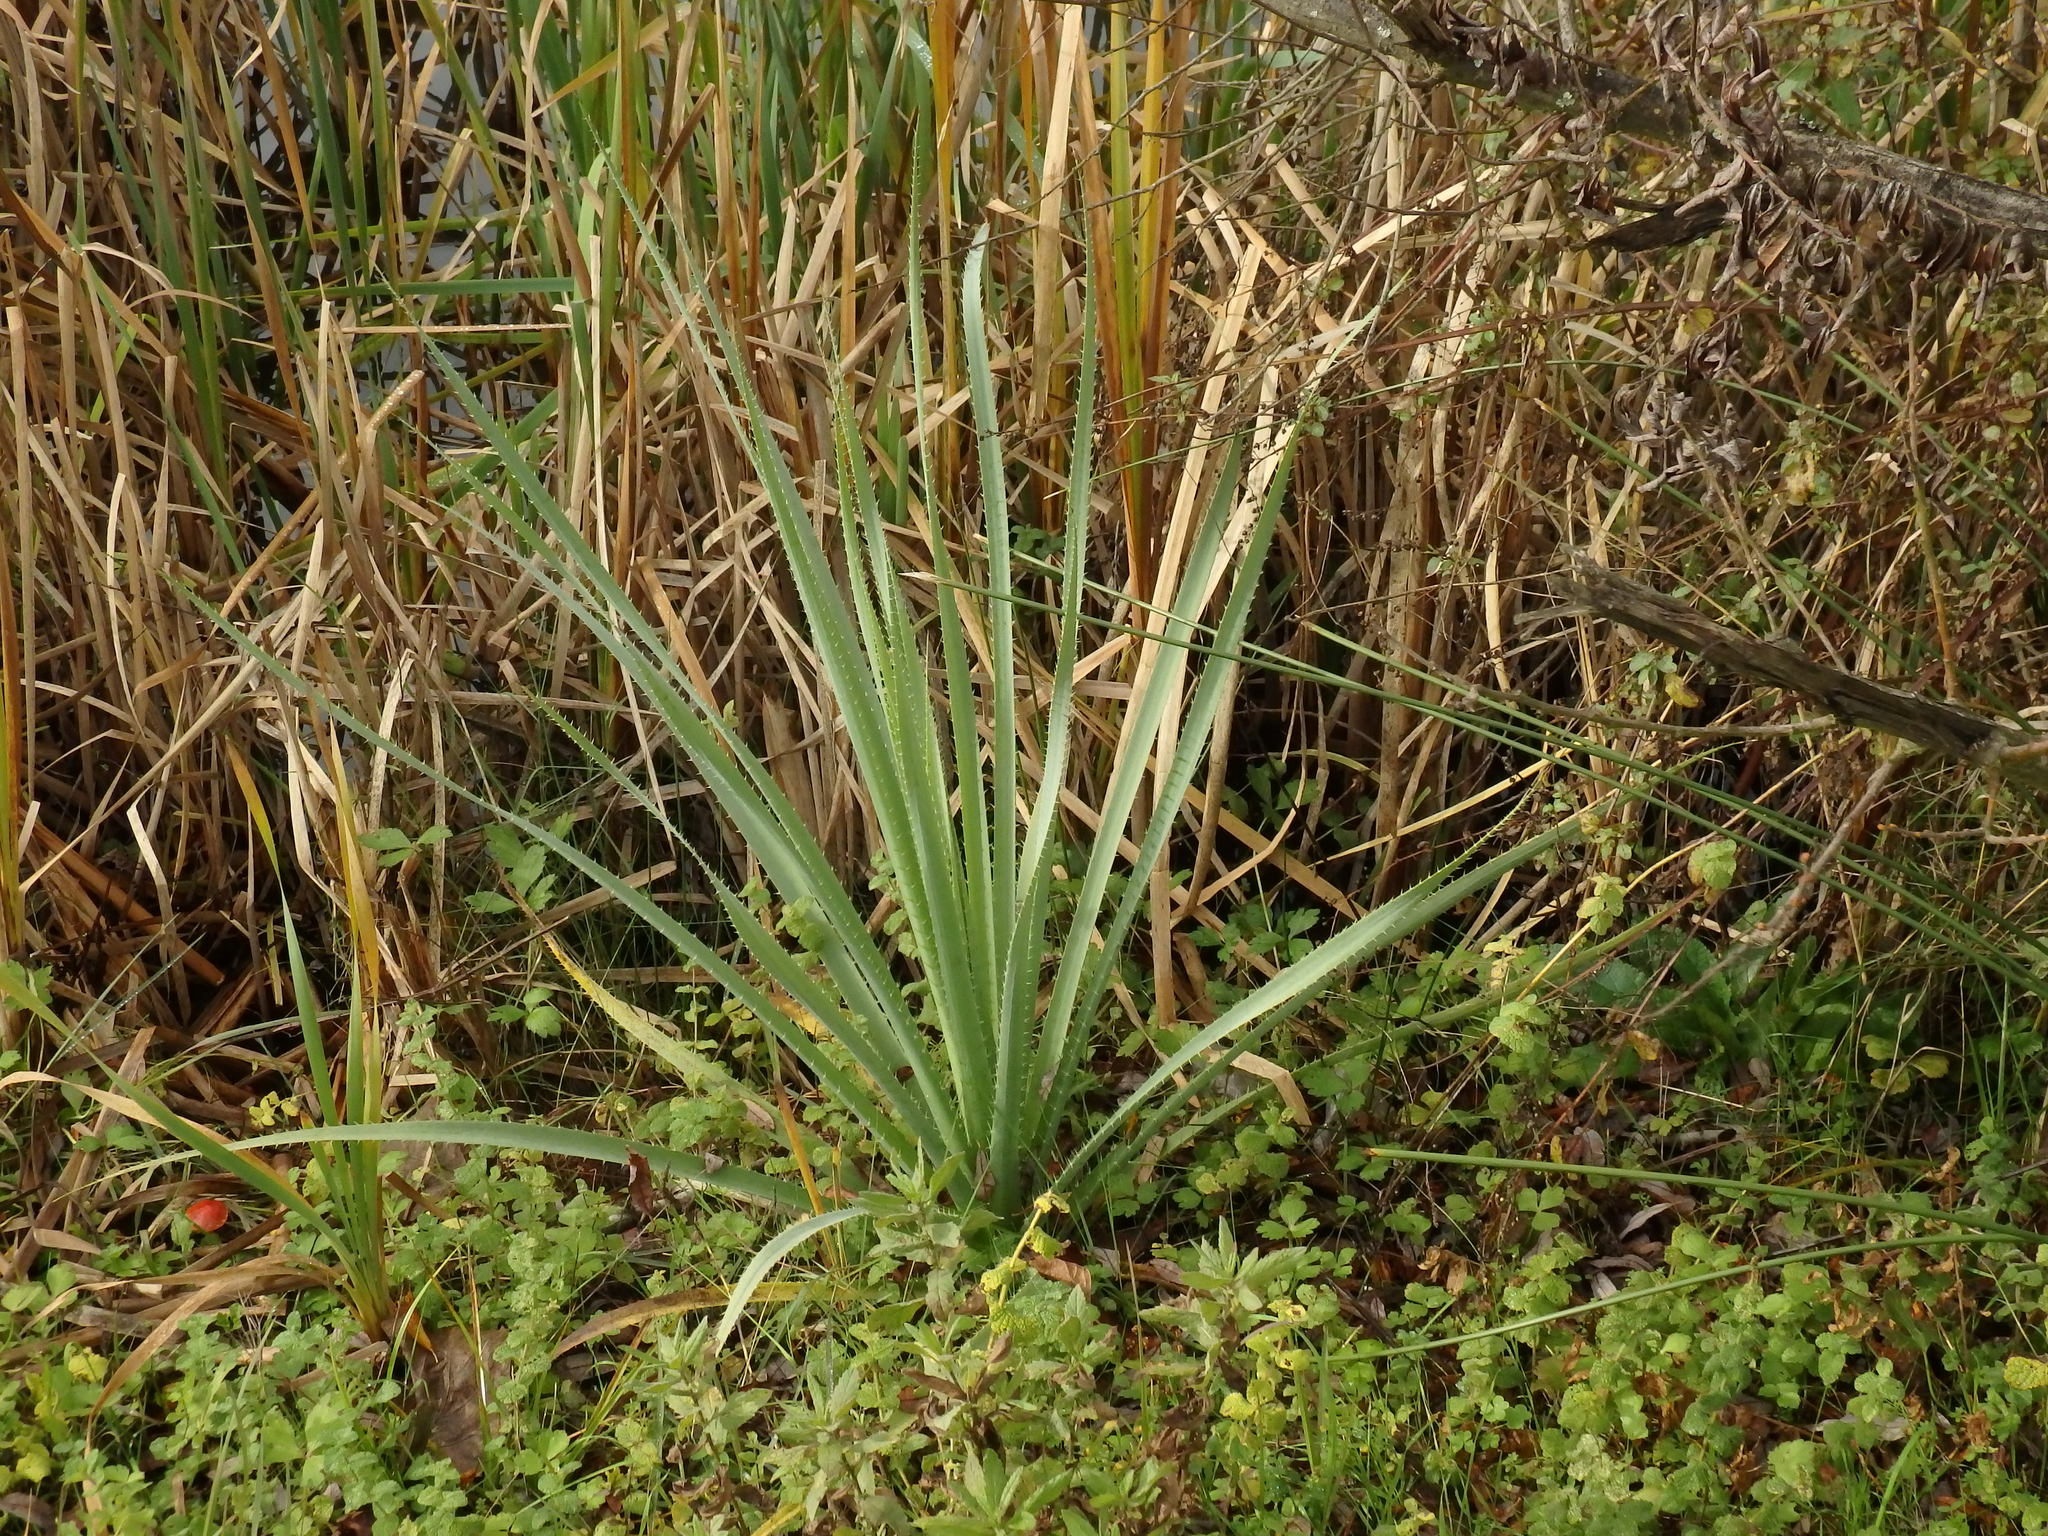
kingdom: Plantae
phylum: Tracheophyta
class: Magnoliopsida
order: Apiales
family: Apiaceae
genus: Eryngium
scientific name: Eryngium pandanifolium
